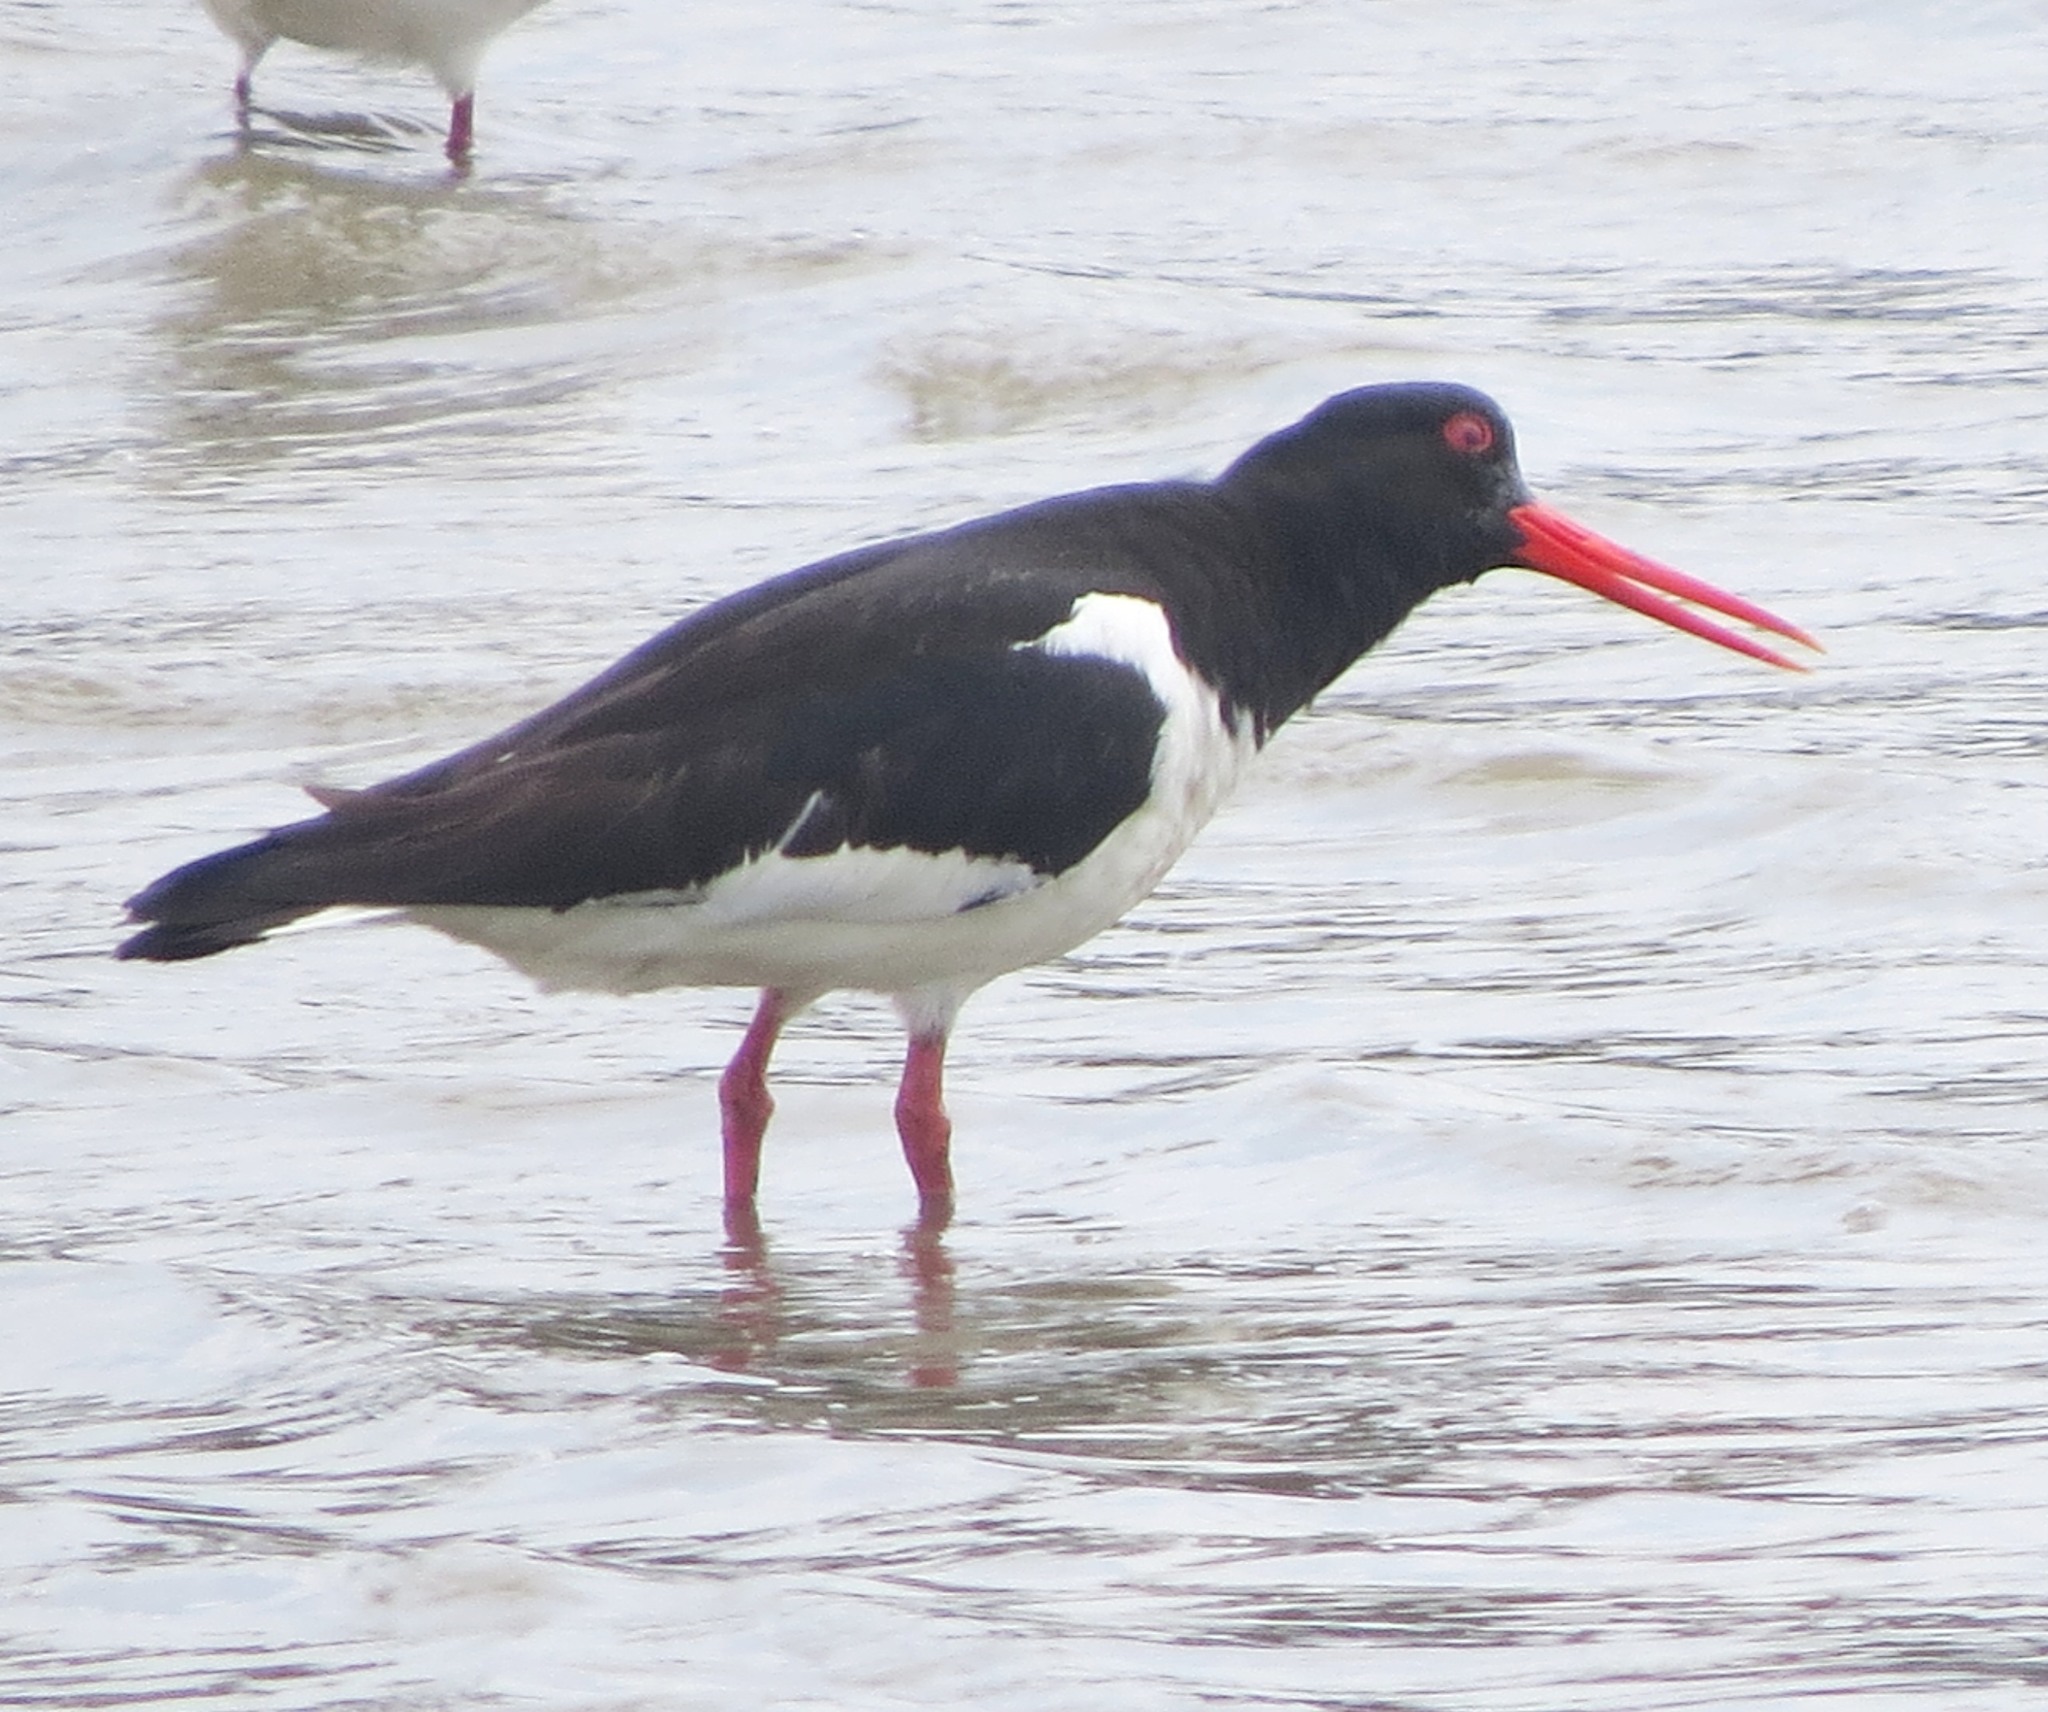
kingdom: Animalia
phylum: Chordata
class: Aves
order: Charadriiformes
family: Haematopodidae
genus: Haematopus
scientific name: Haematopus ostralegus
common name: Eurasian oystercatcher
